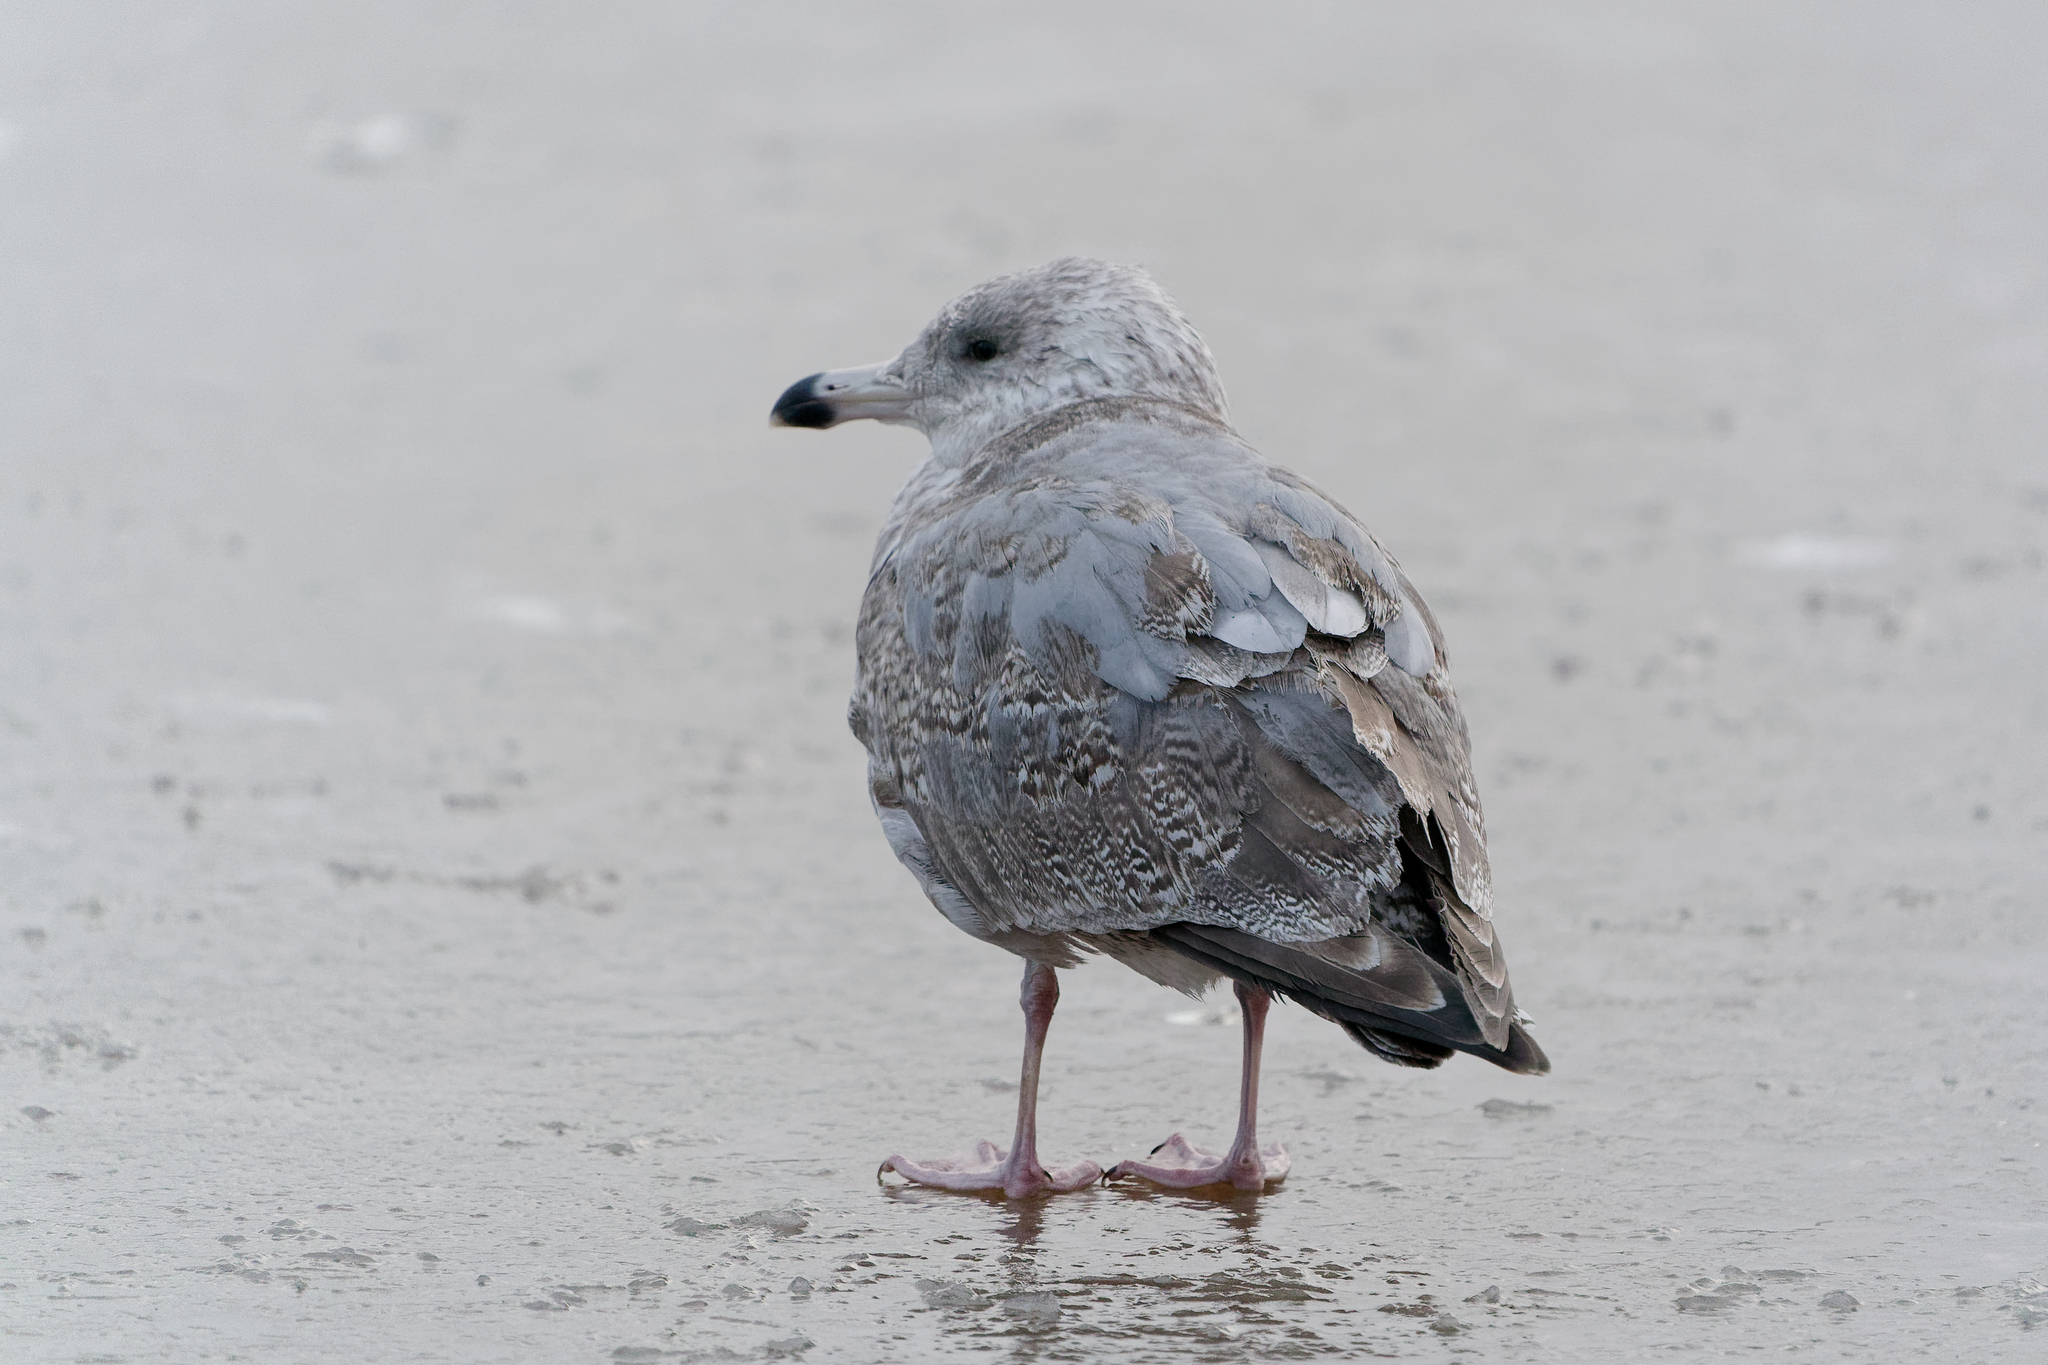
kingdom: Animalia
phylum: Chordata
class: Aves
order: Charadriiformes
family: Laridae
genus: Larus
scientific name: Larus
